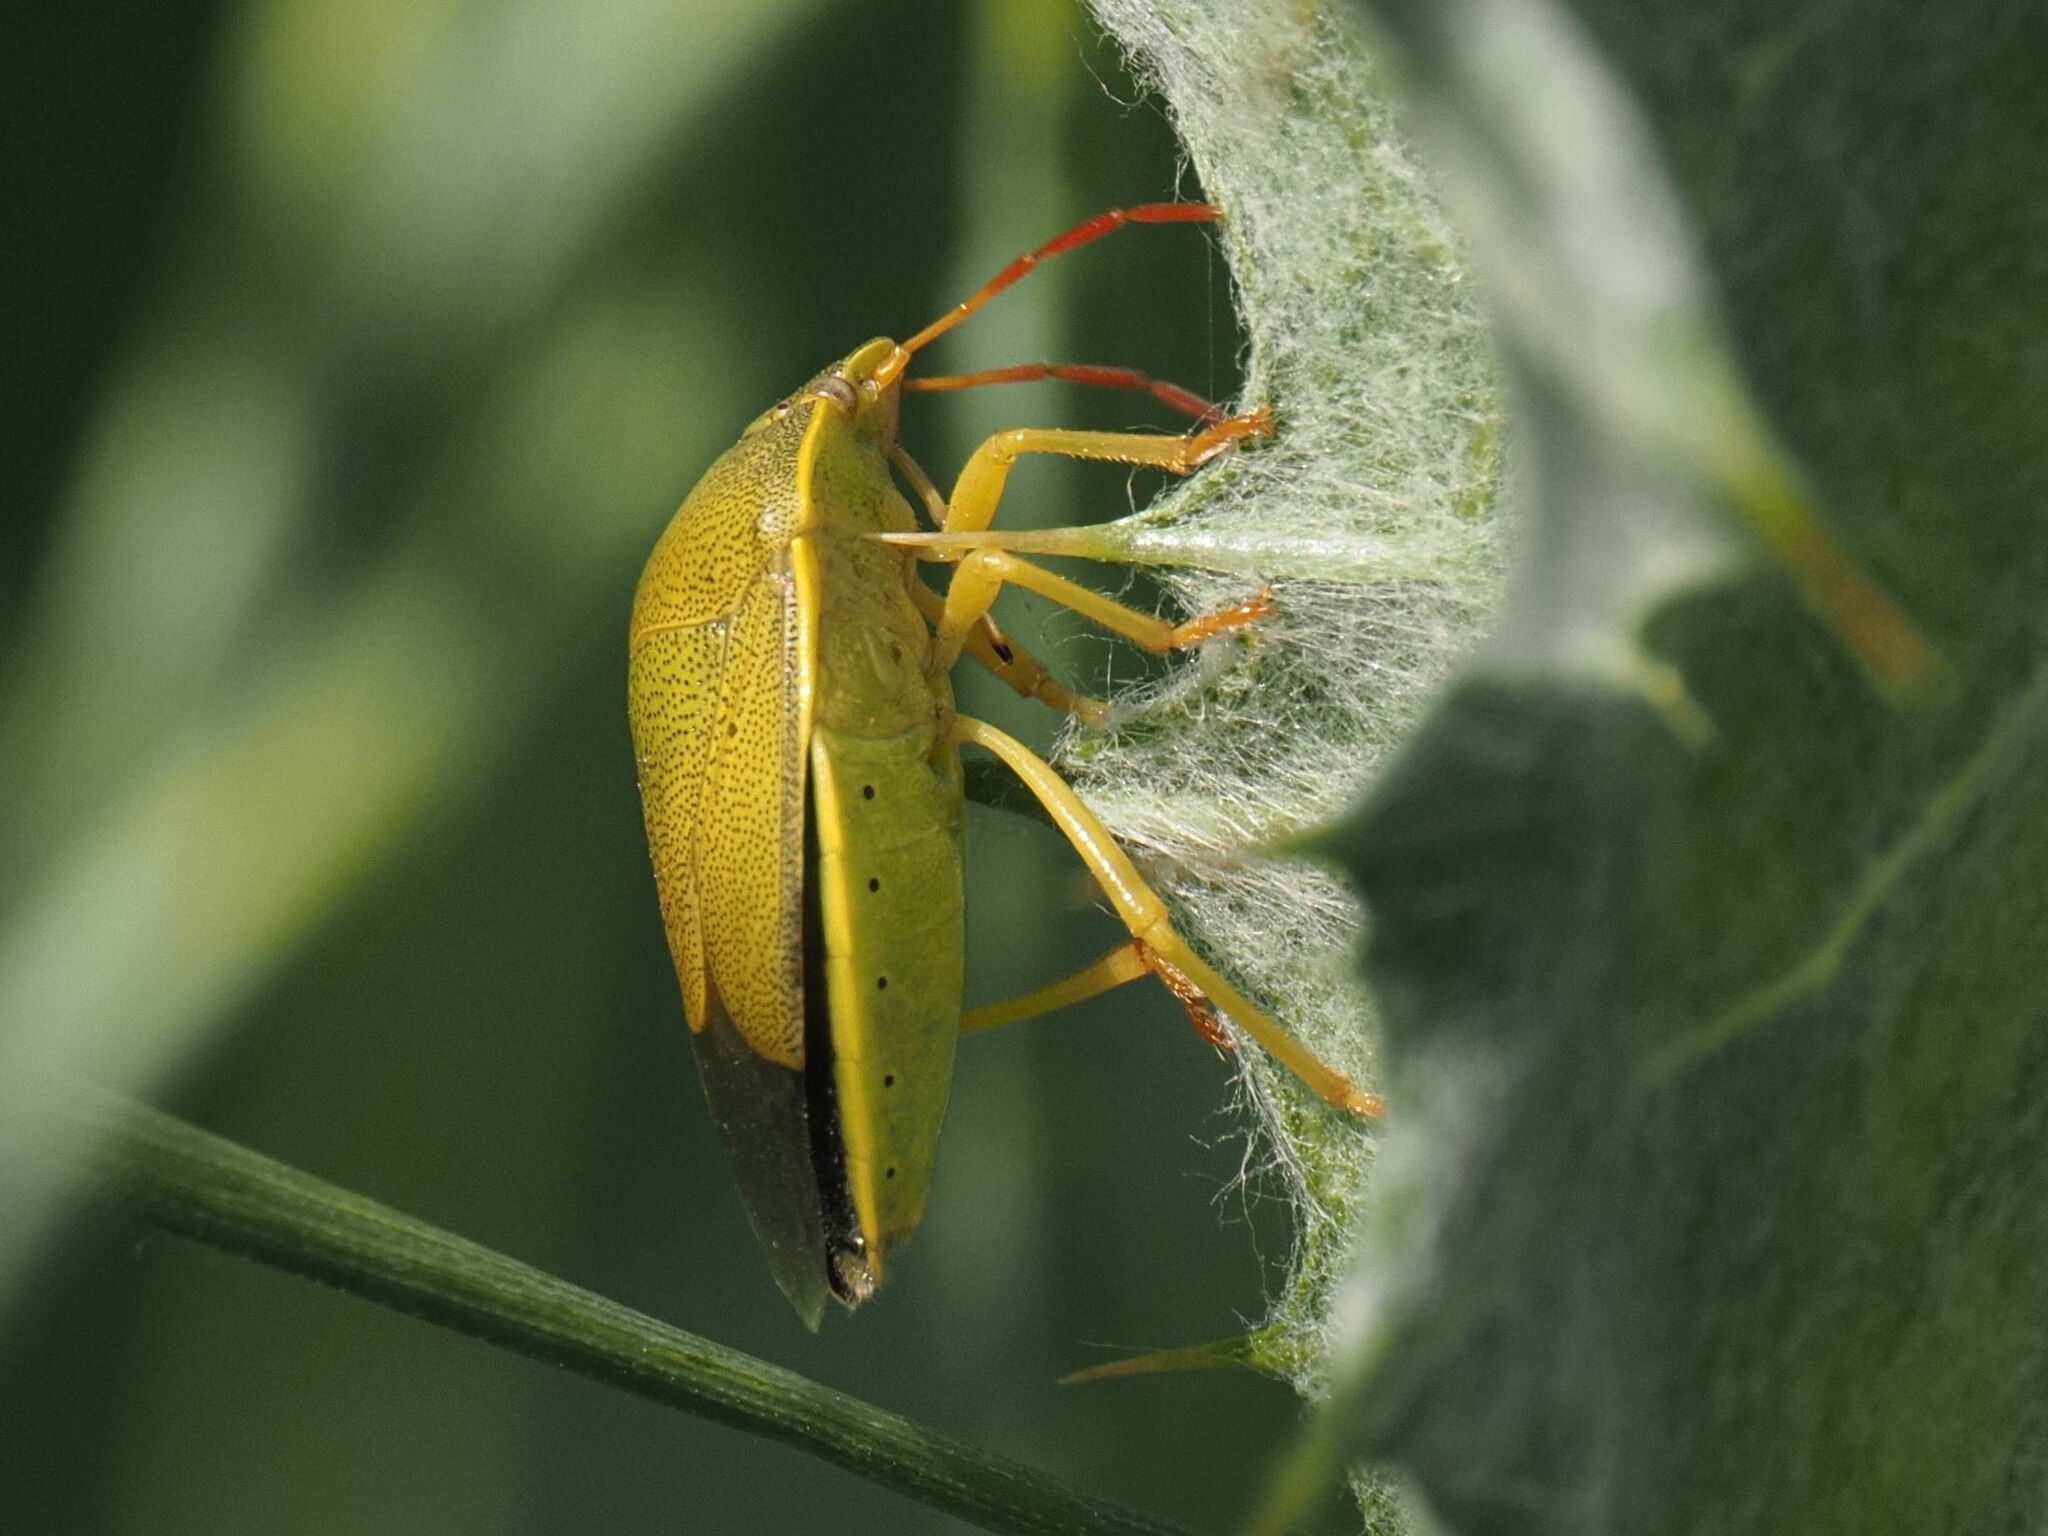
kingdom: Animalia
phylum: Arthropoda
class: Insecta
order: Hemiptera
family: Pentatomidae
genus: Piezodorus
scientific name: Piezodorus lituratus
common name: Stink bug
